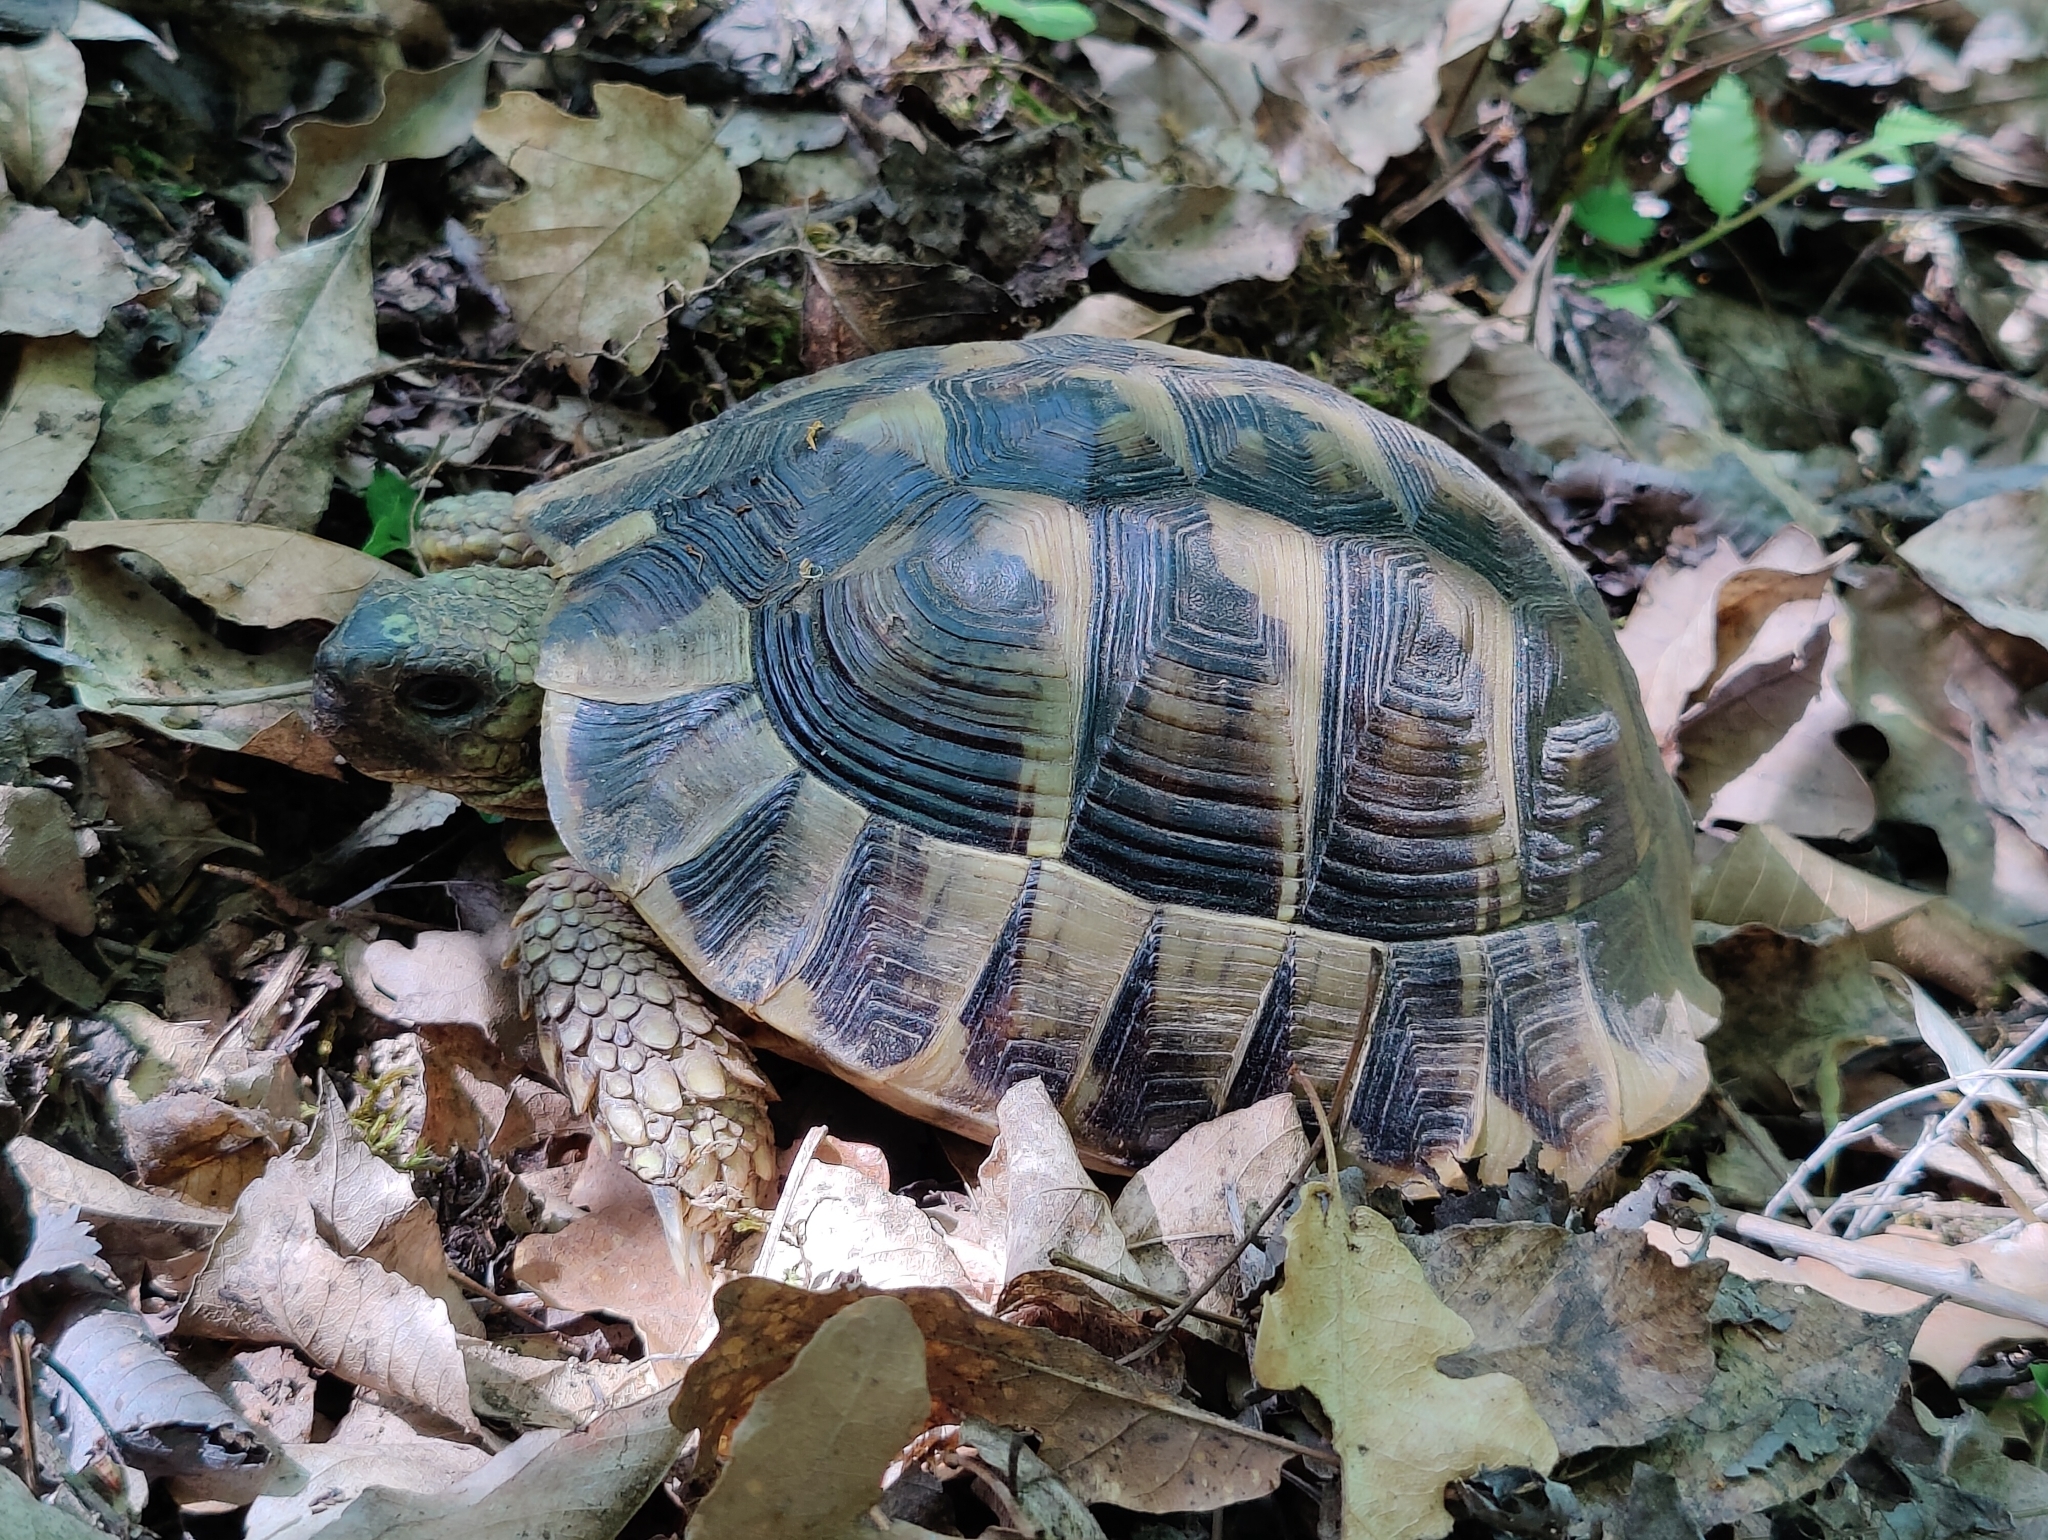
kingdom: Animalia
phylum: Chordata
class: Testudines
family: Testudinidae
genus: Testudo
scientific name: Testudo graeca
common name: Common tortoise
